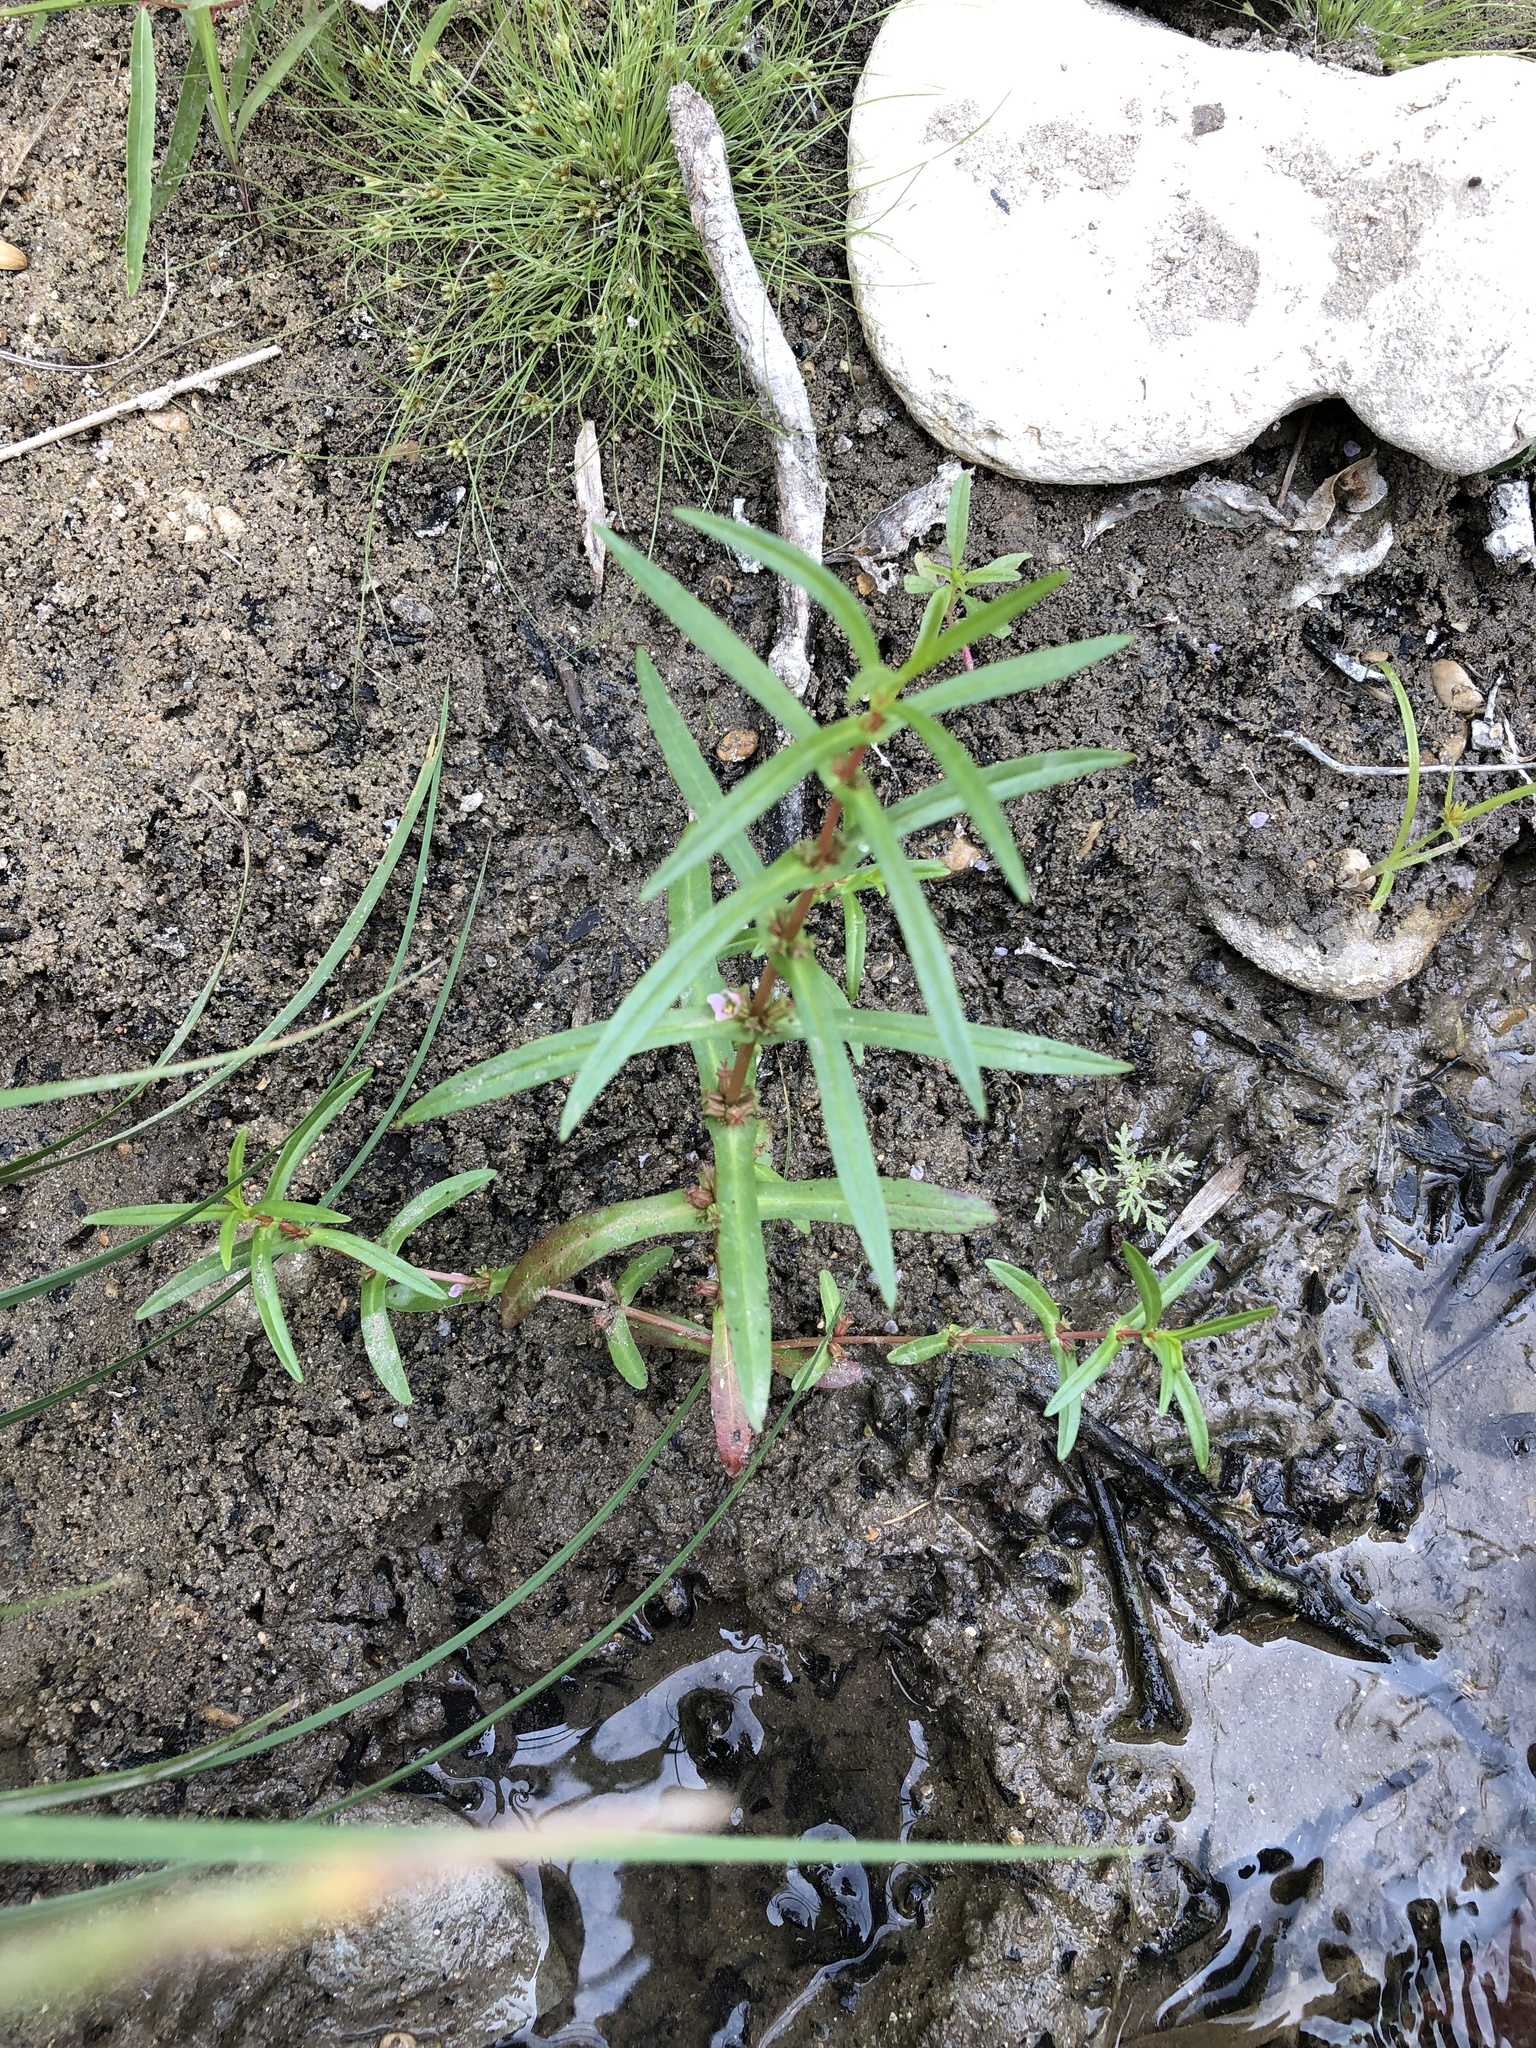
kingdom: Plantae
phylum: Tracheophyta
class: Magnoliopsida
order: Myrtales
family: Lythraceae
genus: Ammannia
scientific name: Ammannia coccinea
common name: Valley redstem
